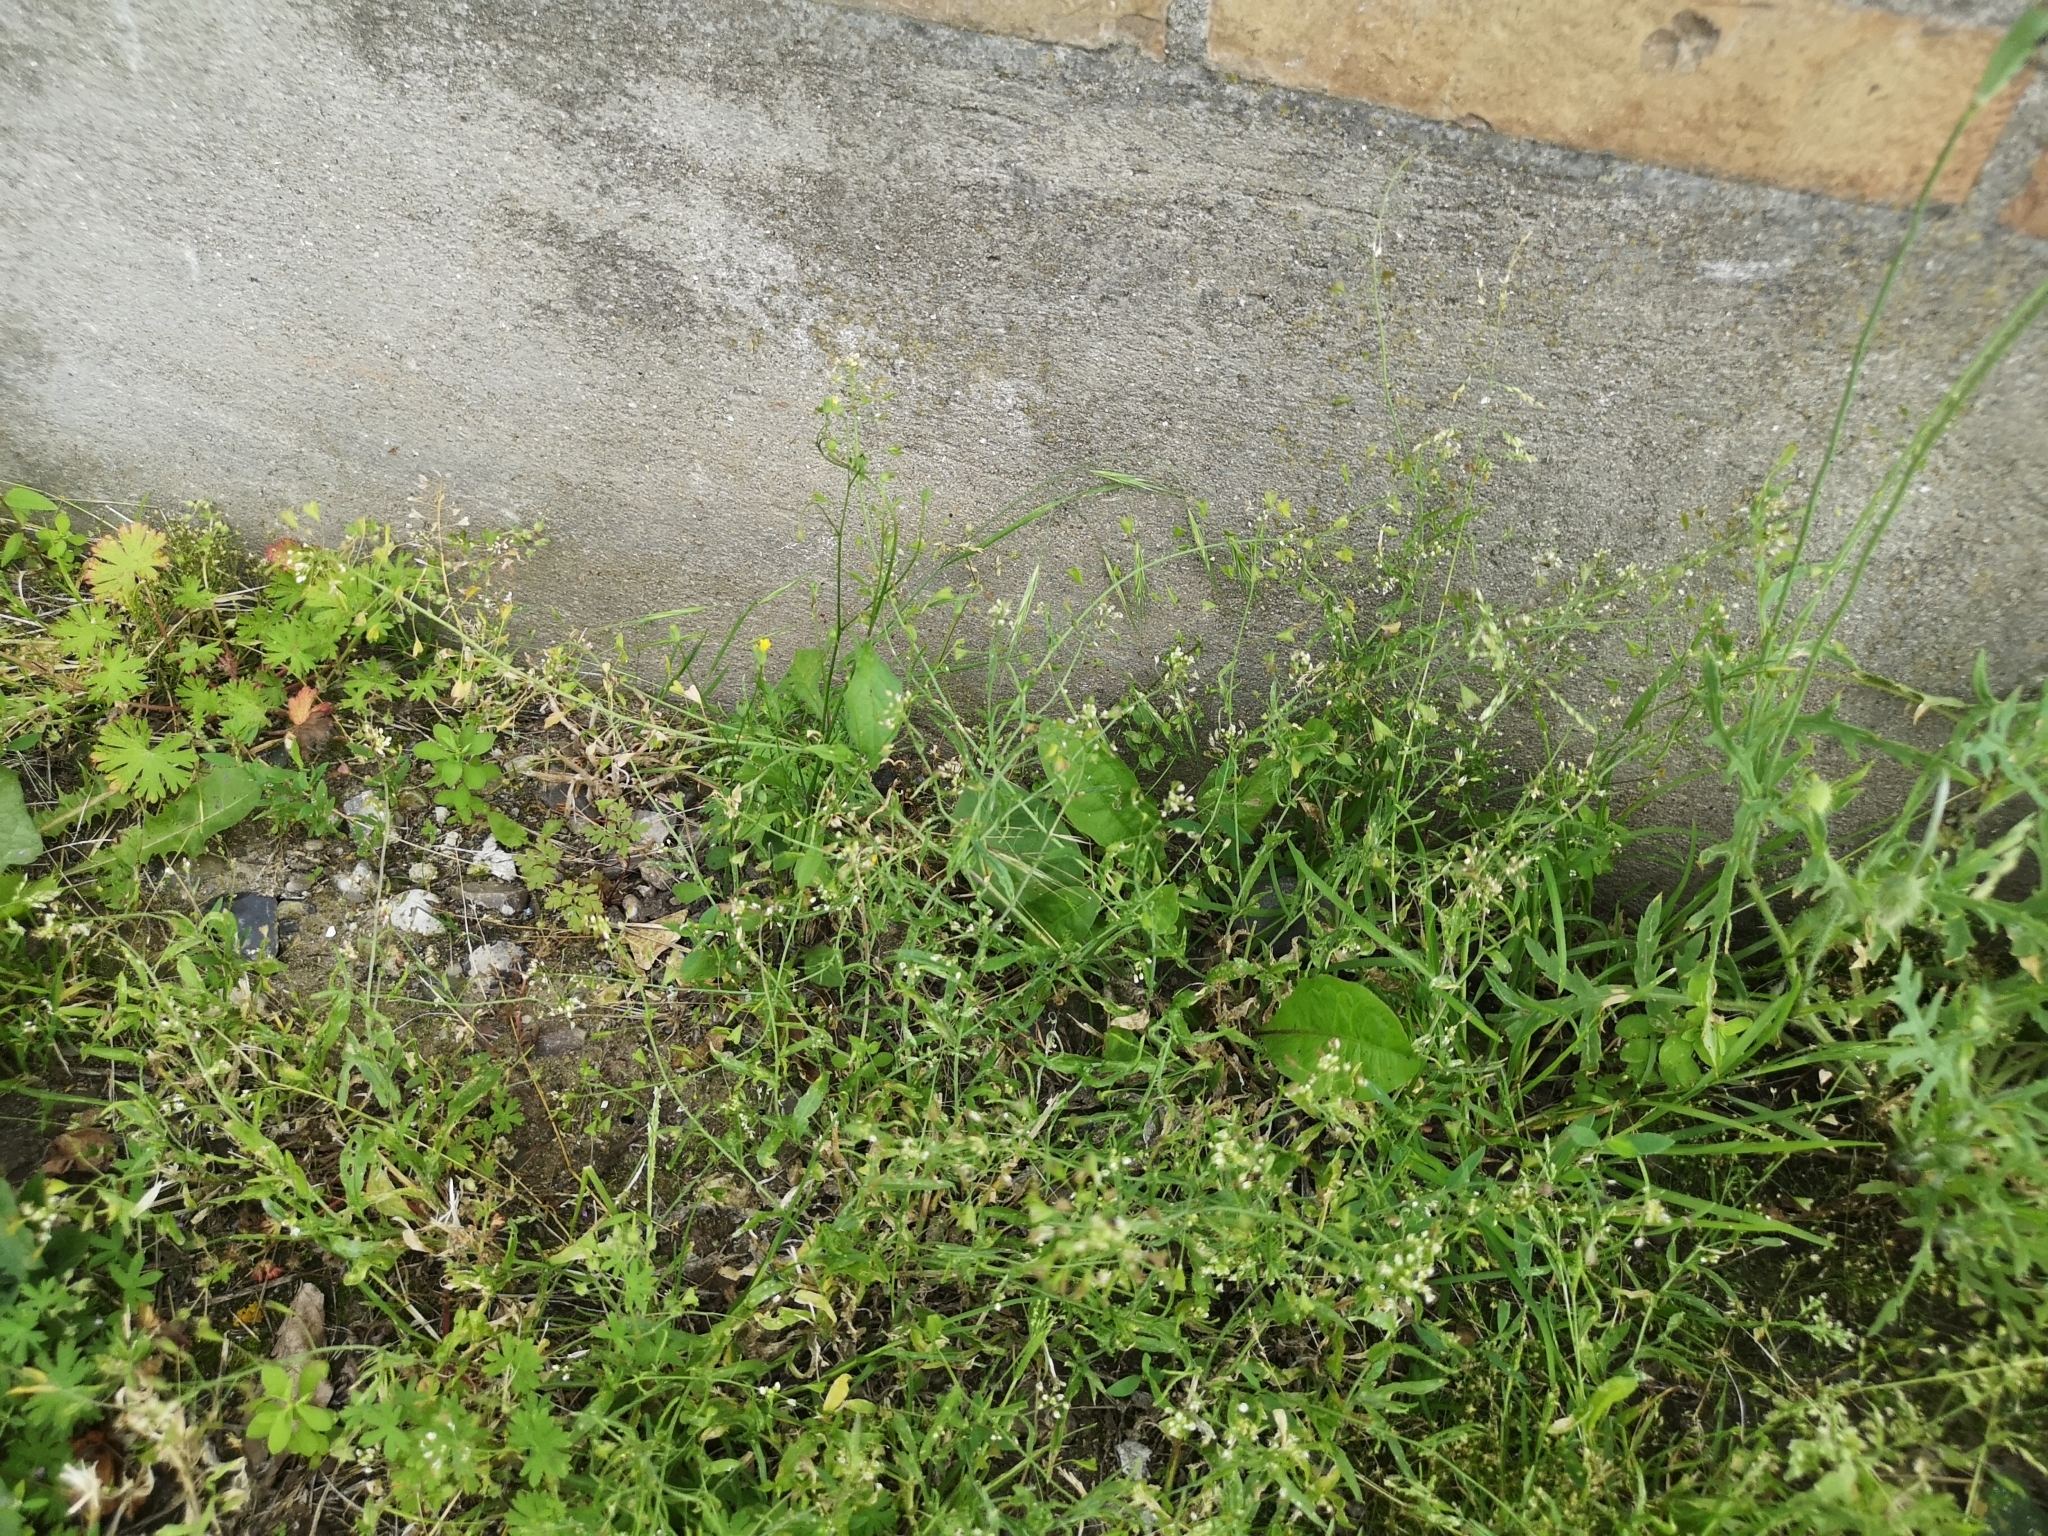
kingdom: Plantae
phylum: Tracheophyta
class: Magnoliopsida
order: Brassicales
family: Brassicaceae
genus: Capsella
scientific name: Capsella bursa-pastoris
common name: Shepherd's purse
